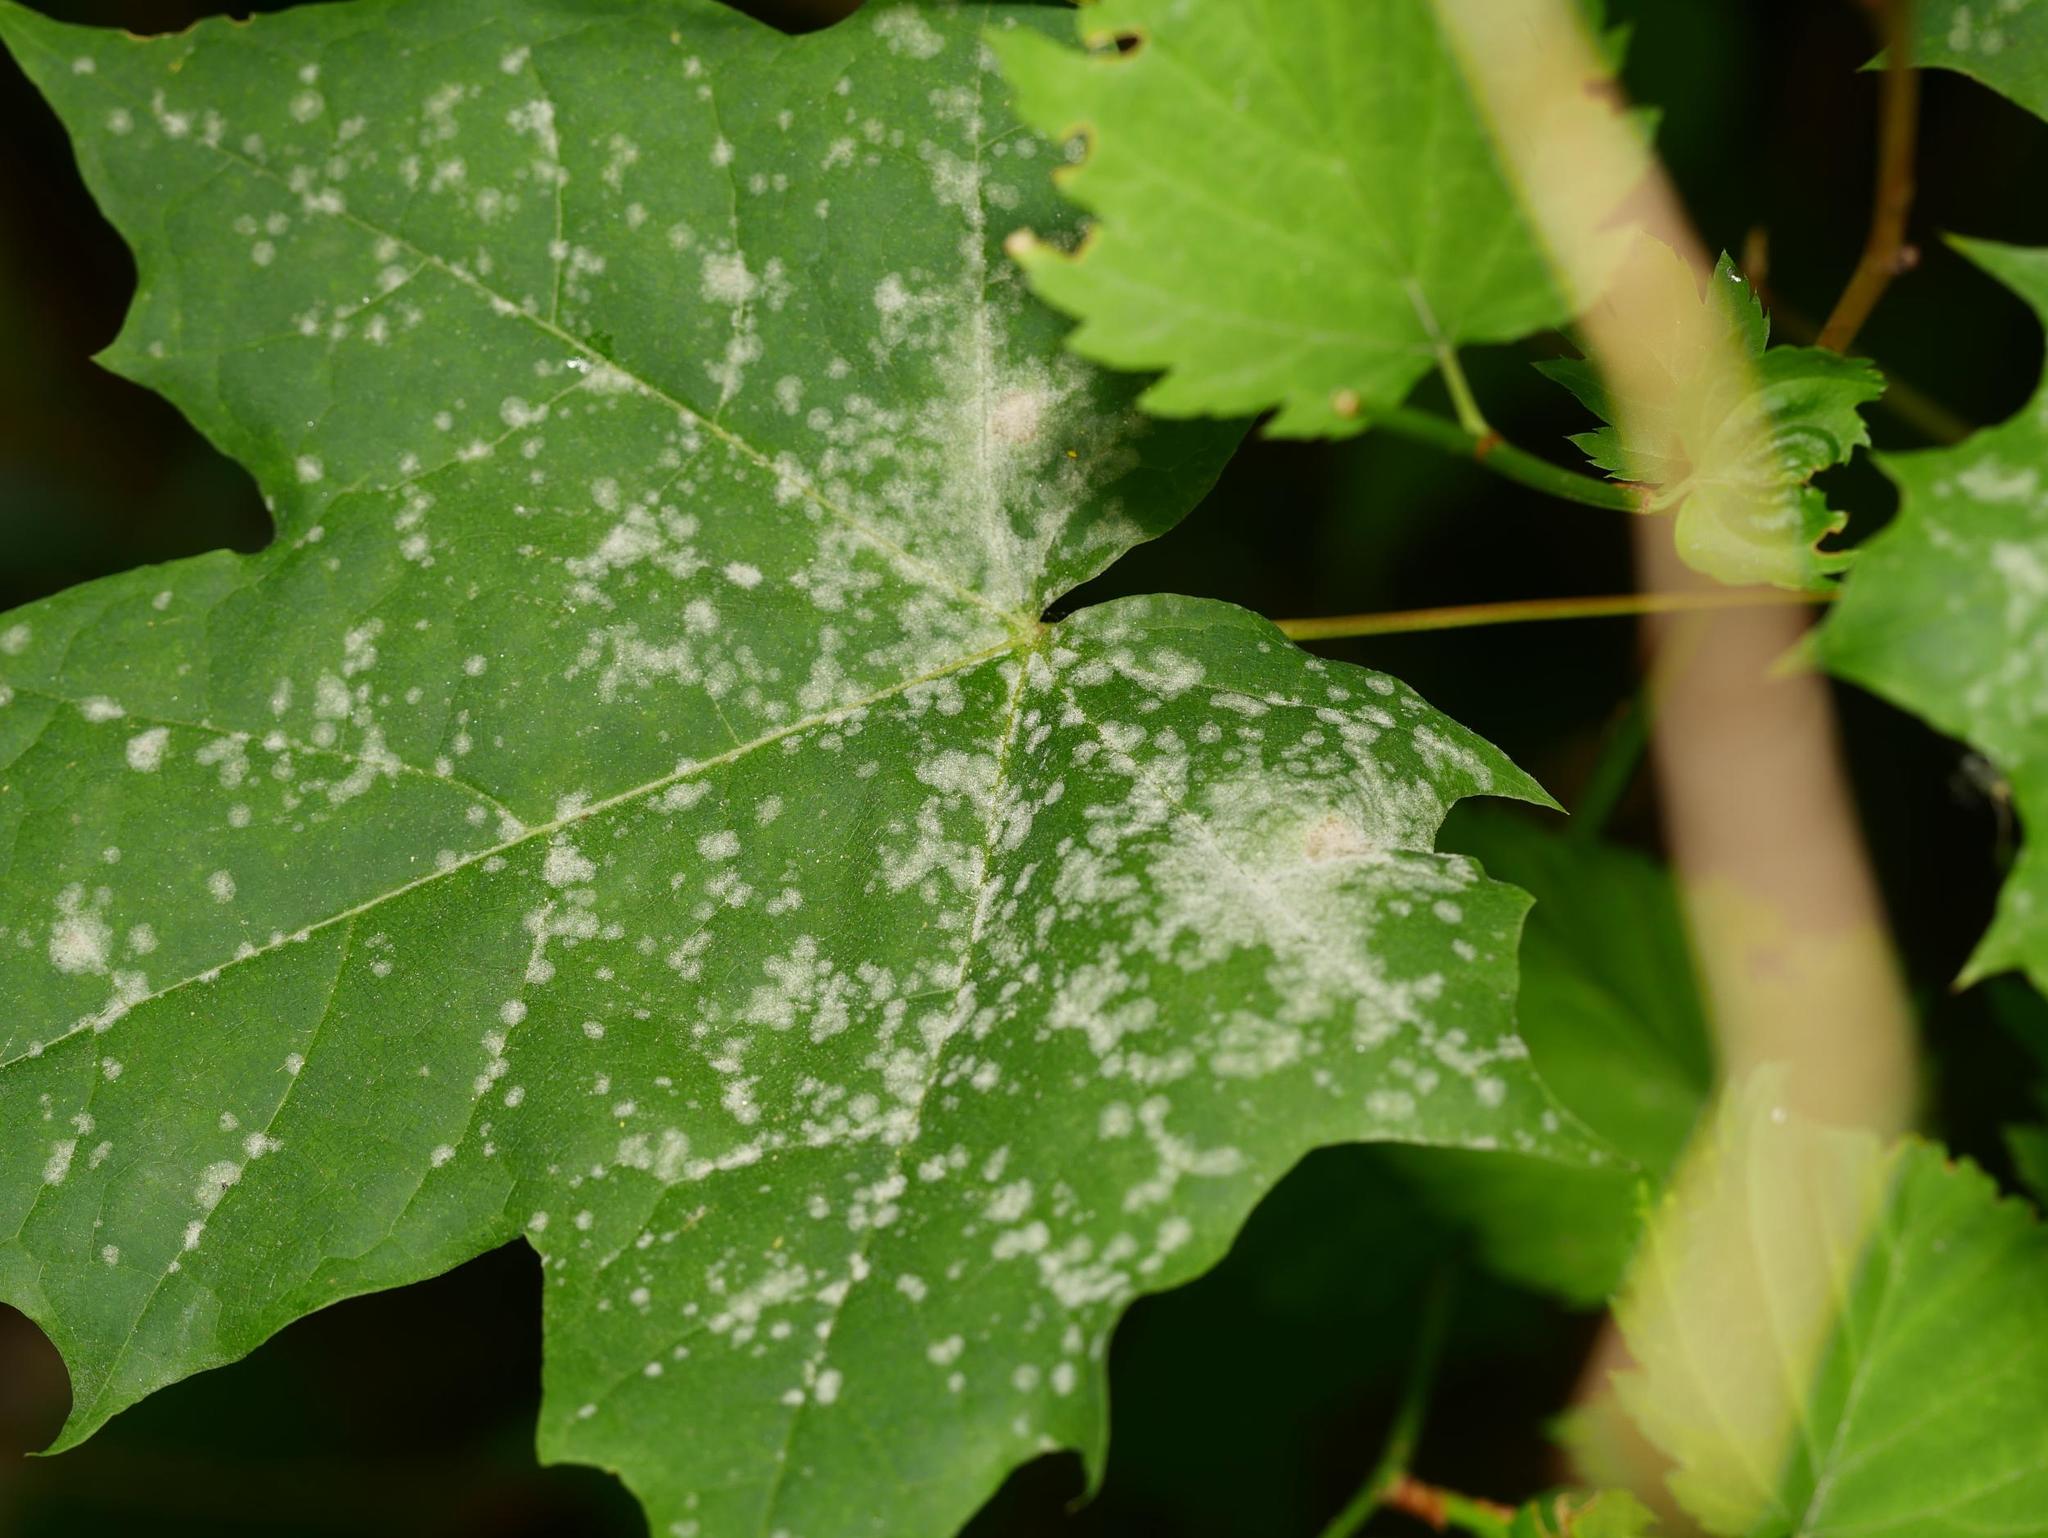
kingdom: Fungi
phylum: Ascomycota
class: Leotiomycetes
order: Helotiales
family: Erysiphaceae
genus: Sawadaea
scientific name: Sawadaea tulasnei
